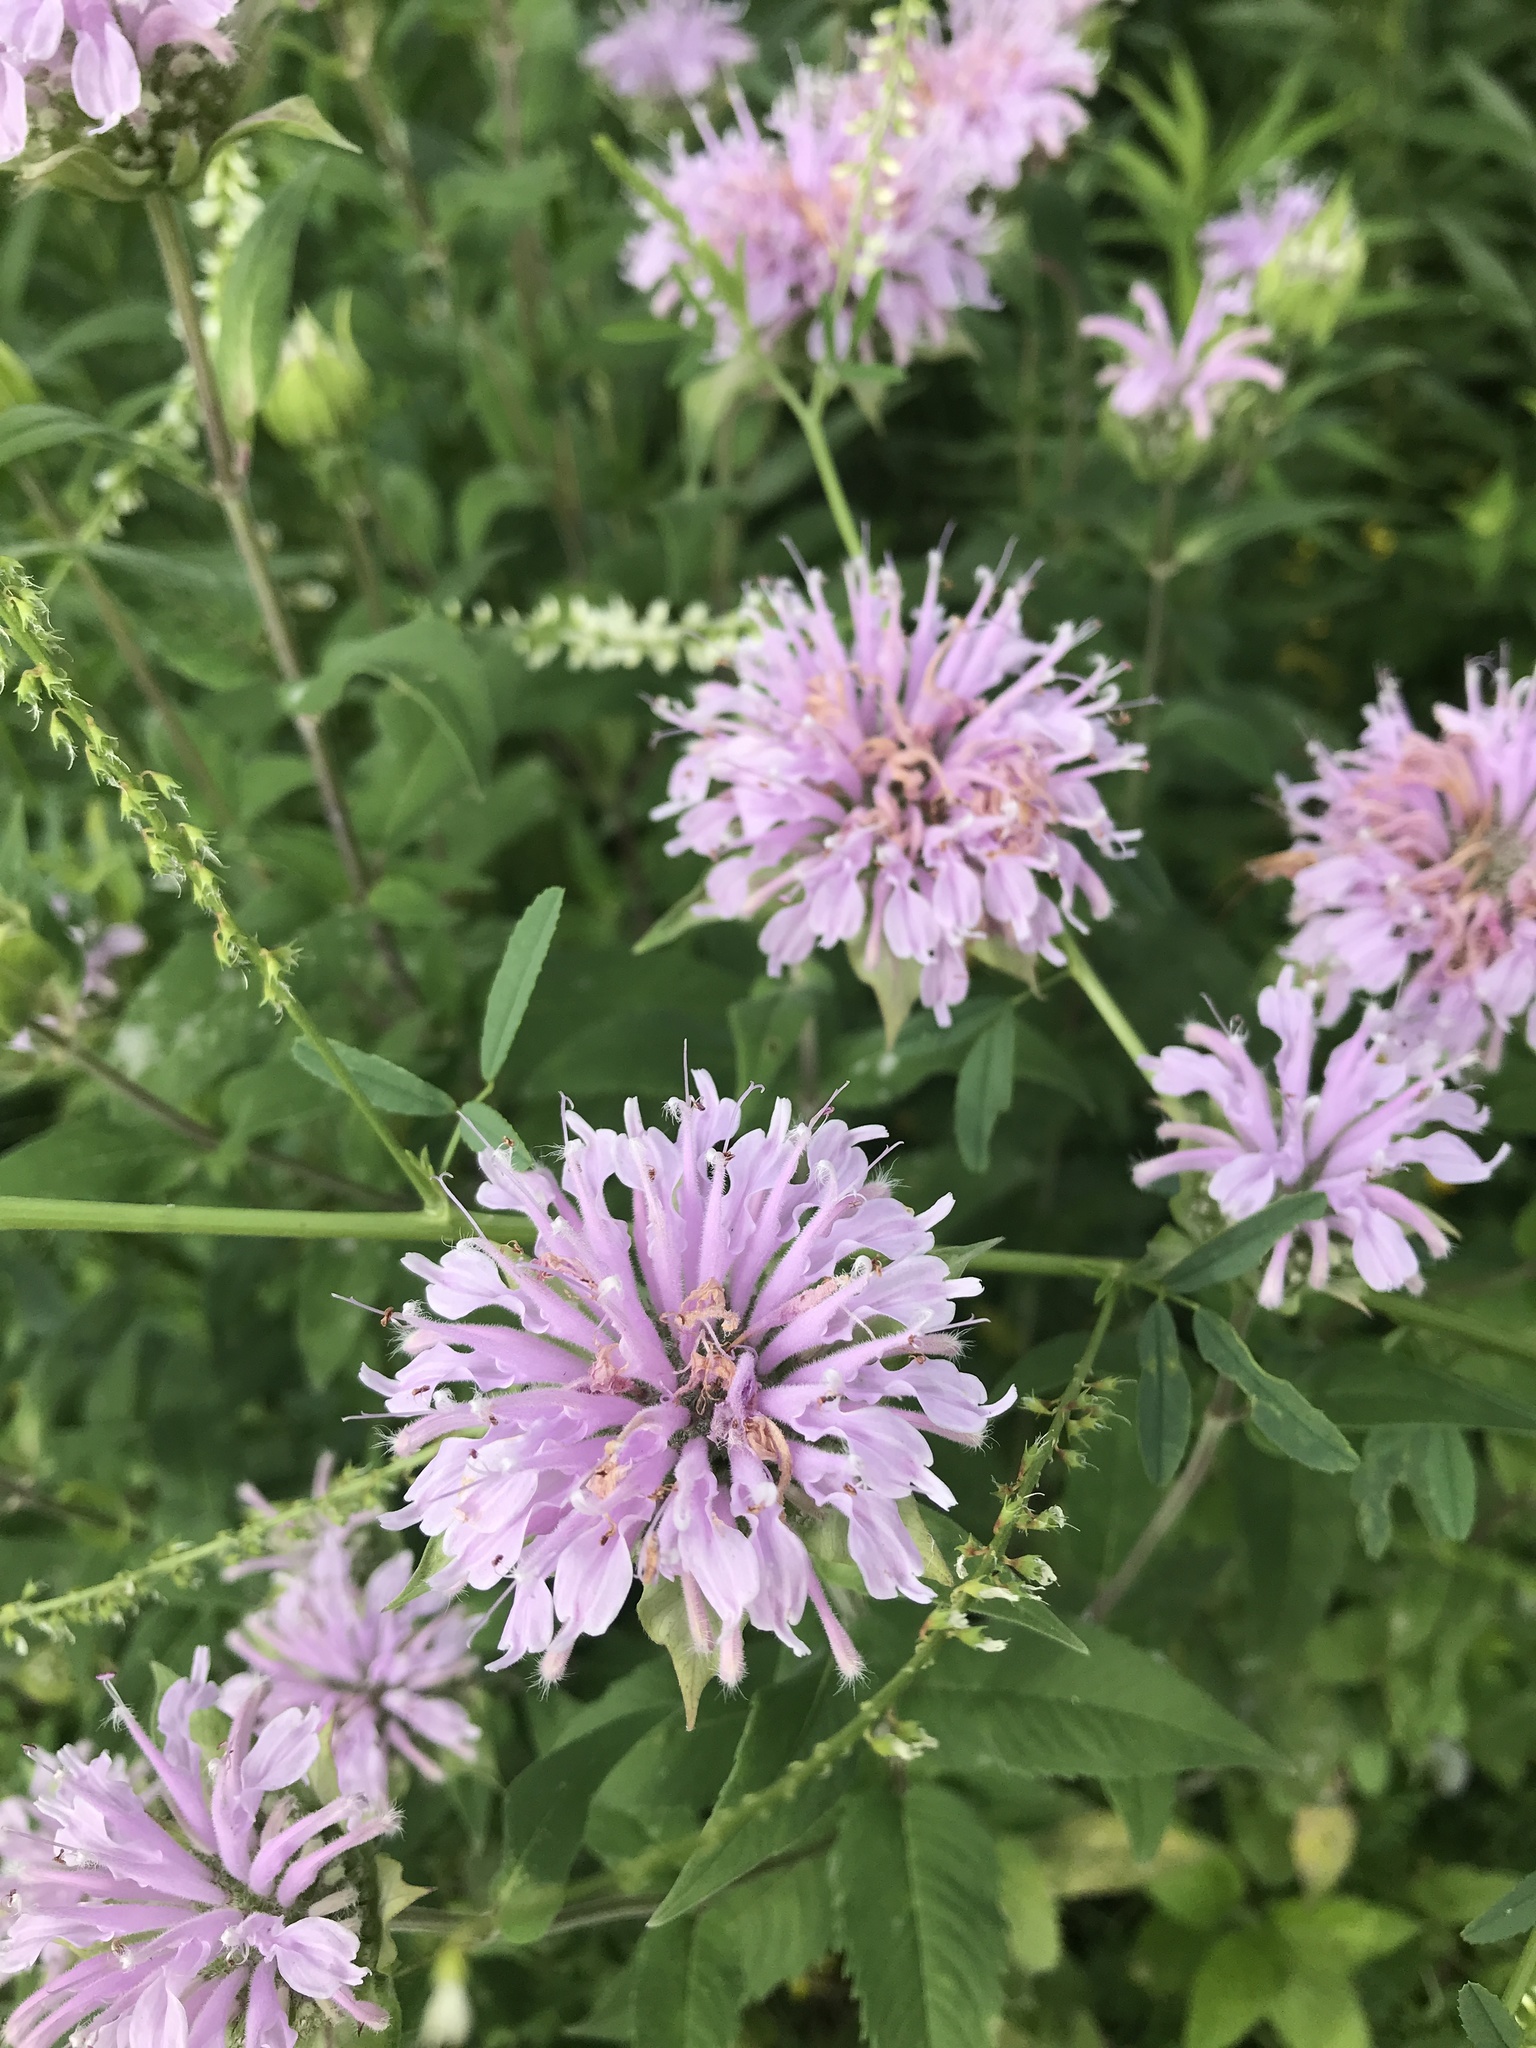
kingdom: Plantae
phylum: Tracheophyta
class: Magnoliopsida
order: Lamiales
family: Lamiaceae
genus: Monarda
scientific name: Monarda fistulosa
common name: Purple beebalm
